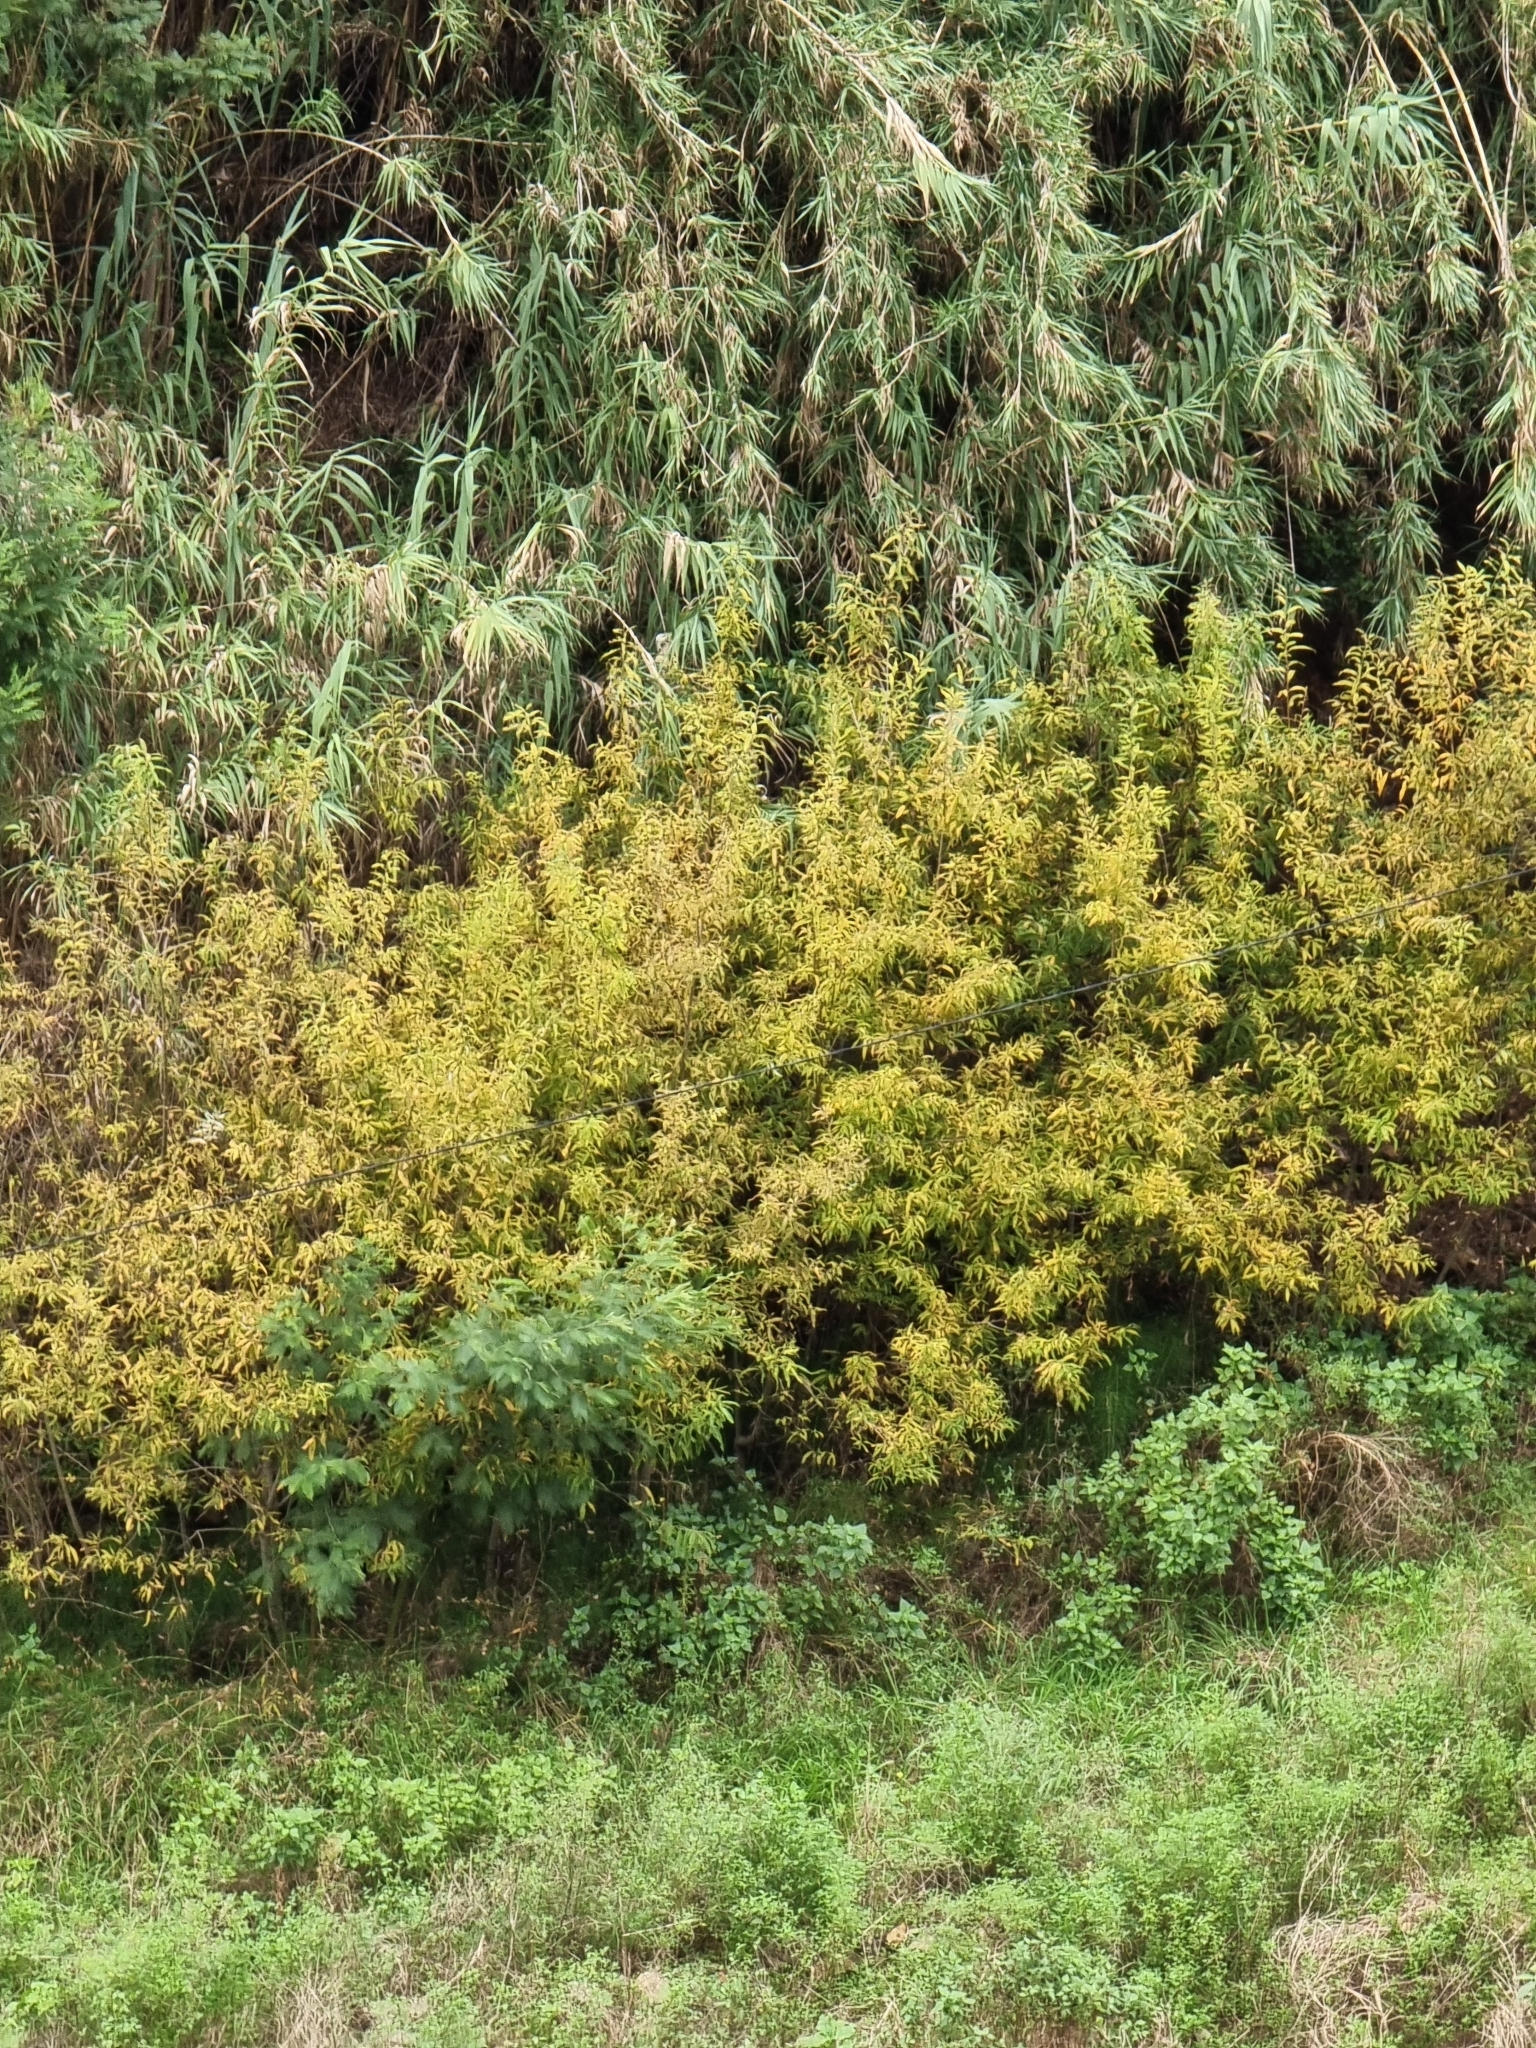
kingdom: Plantae
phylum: Tracheophyta
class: Magnoliopsida
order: Malpighiales
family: Salicaceae
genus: Salix
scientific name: Salix canariensis
